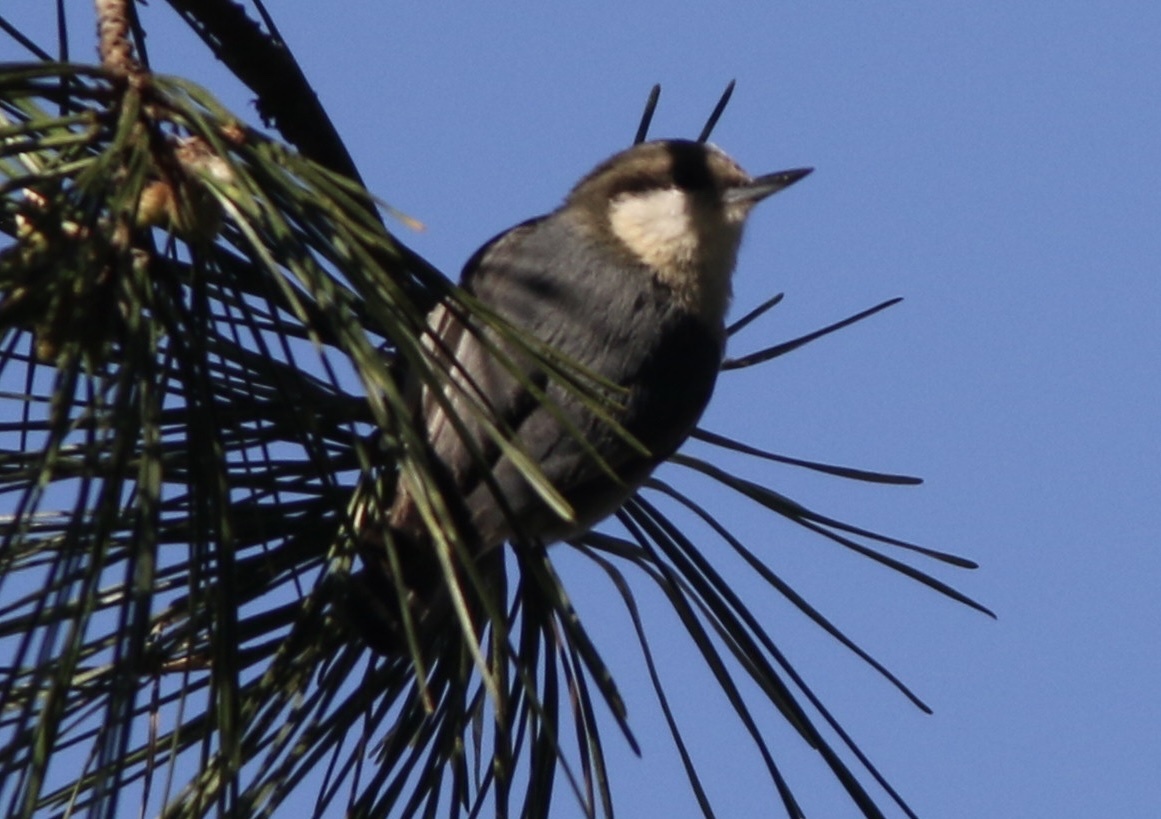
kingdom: Animalia
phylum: Chordata
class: Aves
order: Passeriformes
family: Sittidae
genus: Sitta
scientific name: Sitta pygmaea
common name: Pygmy nuthatch
